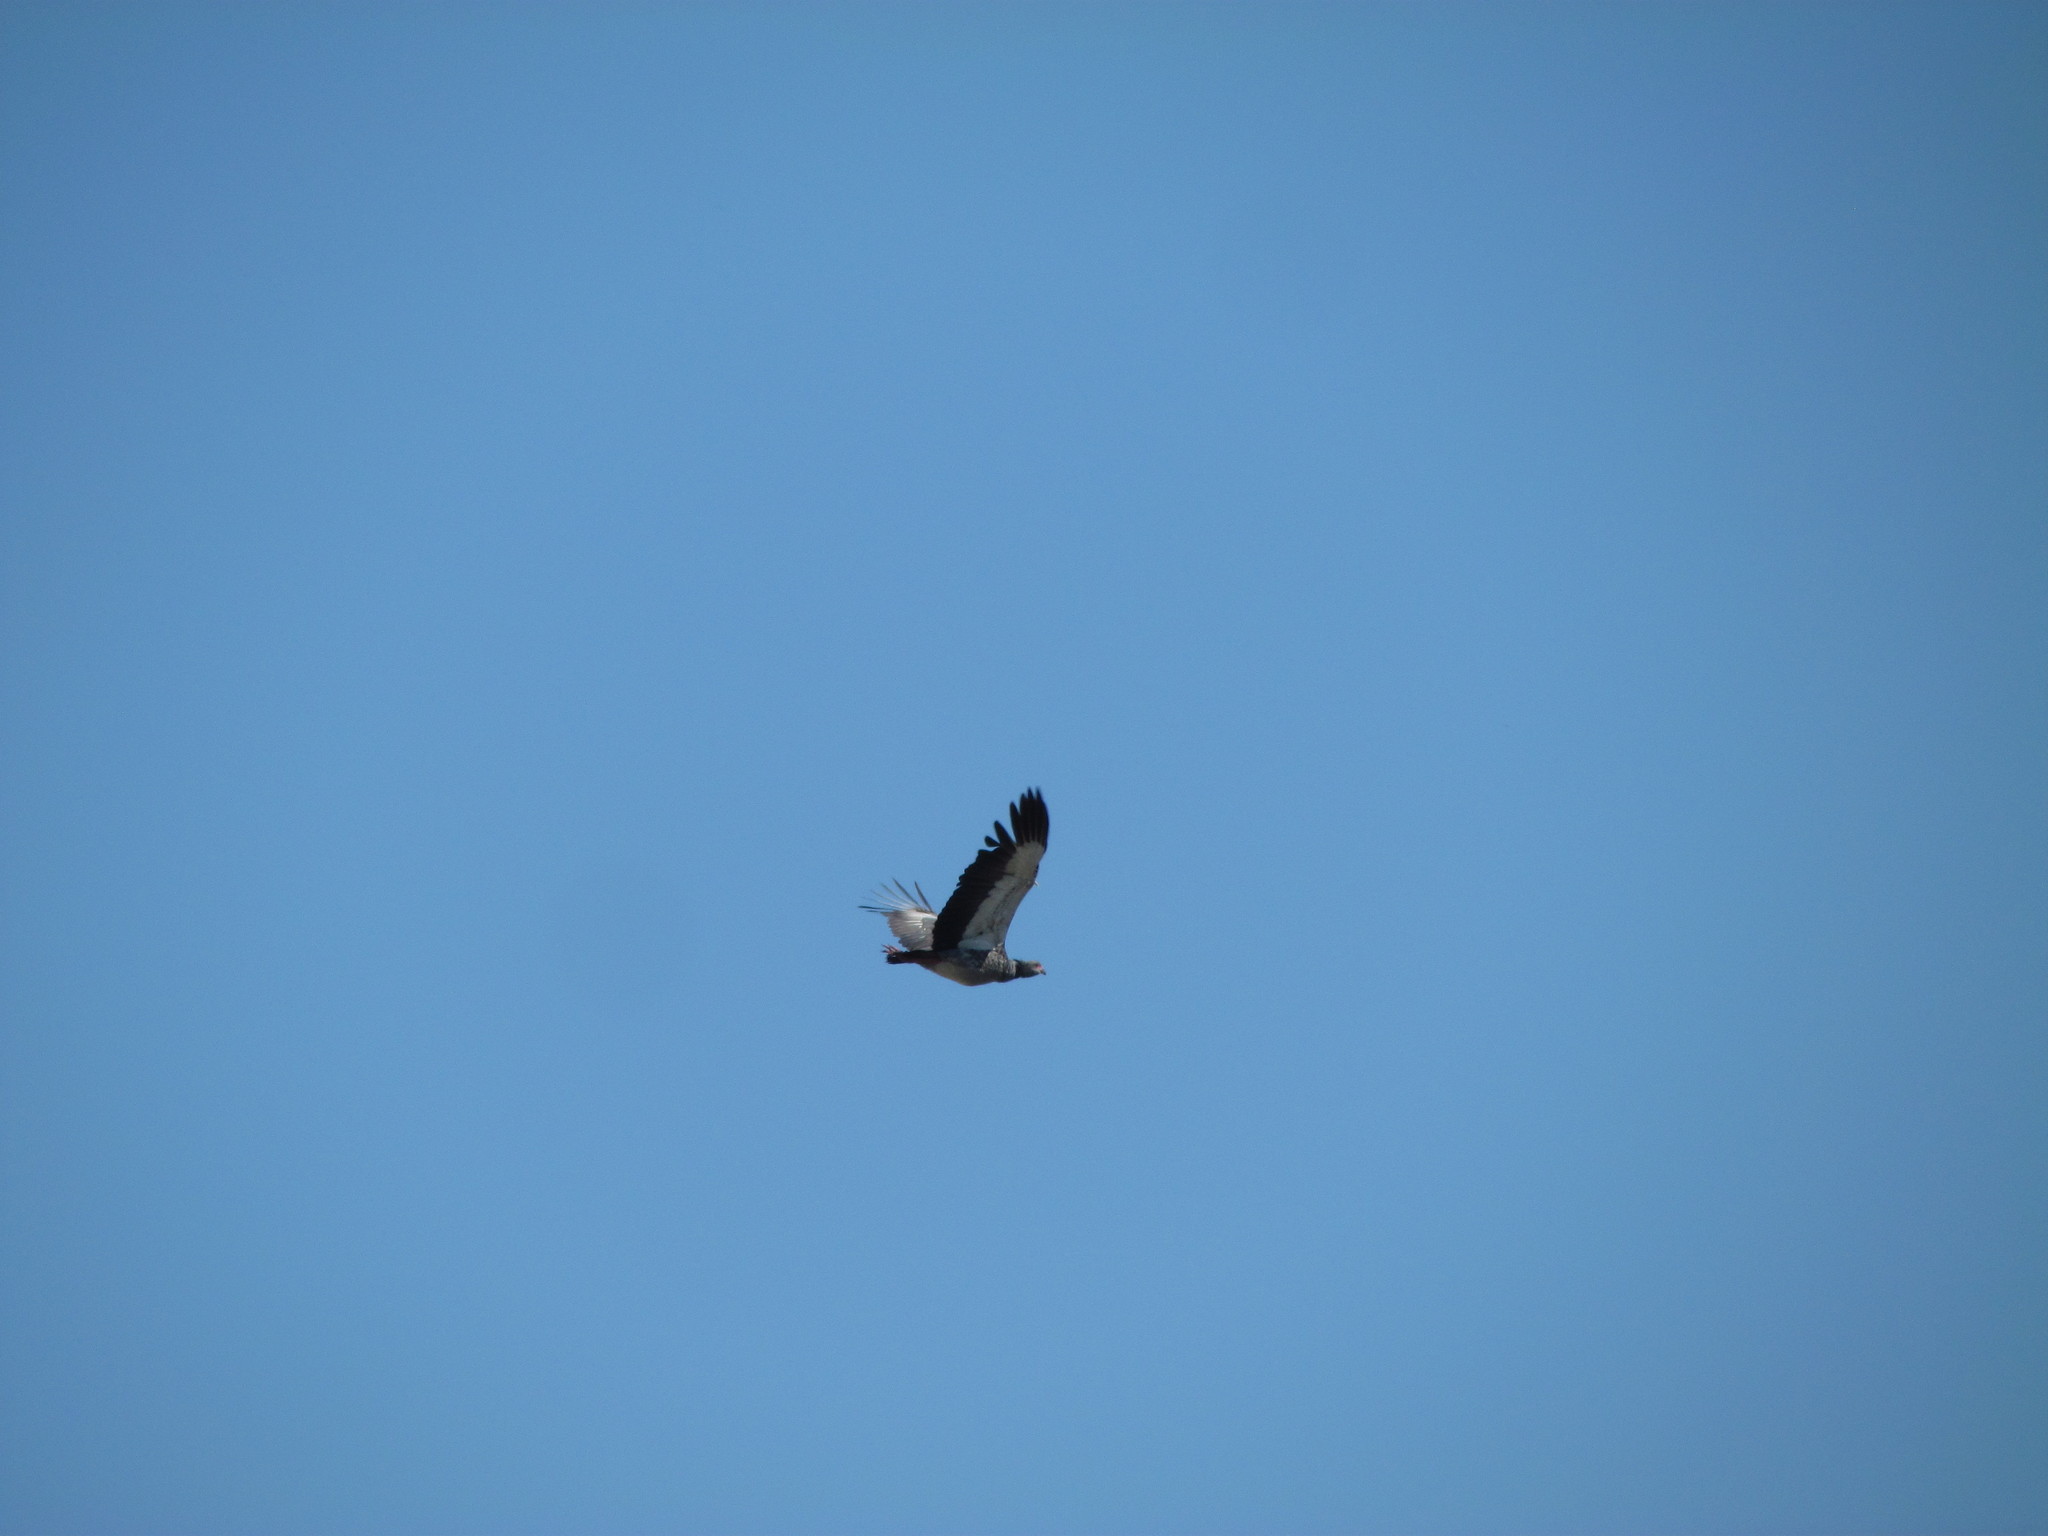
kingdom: Animalia
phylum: Chordata
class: Aves
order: Anseriformes
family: Anhimidae
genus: Chauna
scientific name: Chauna torquata
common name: Southern screamer
